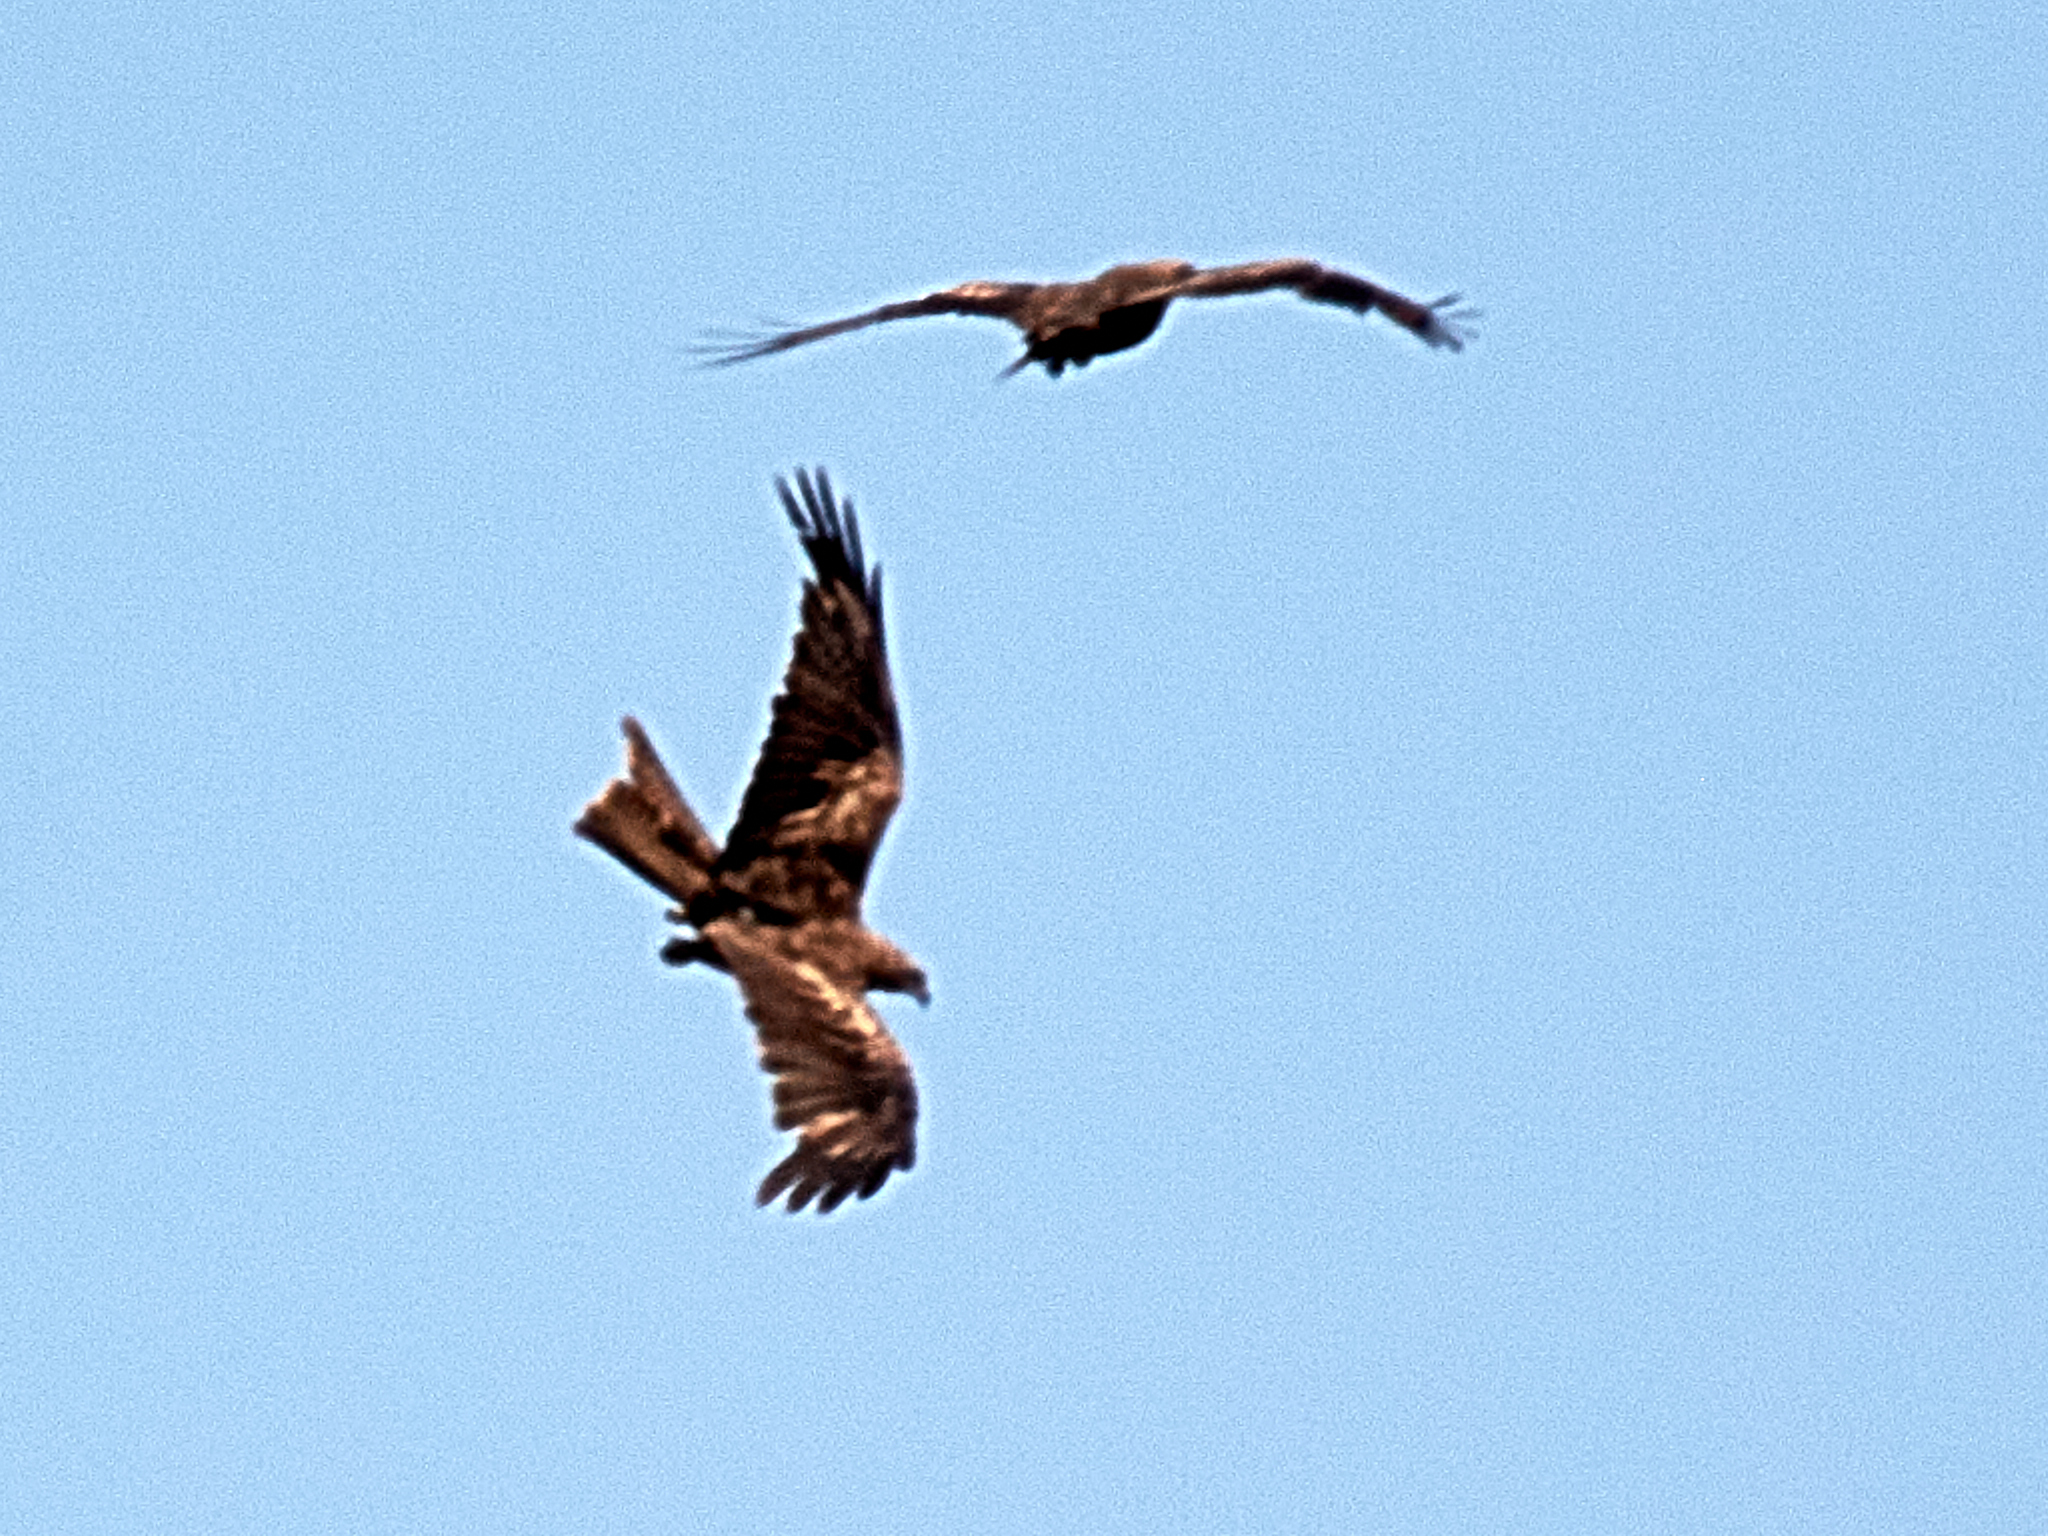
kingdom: Animalia
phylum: Chordata
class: Aves
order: Accipitriformes
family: Accipitridae
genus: Milvus
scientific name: Milvus migrans
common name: Black kite
